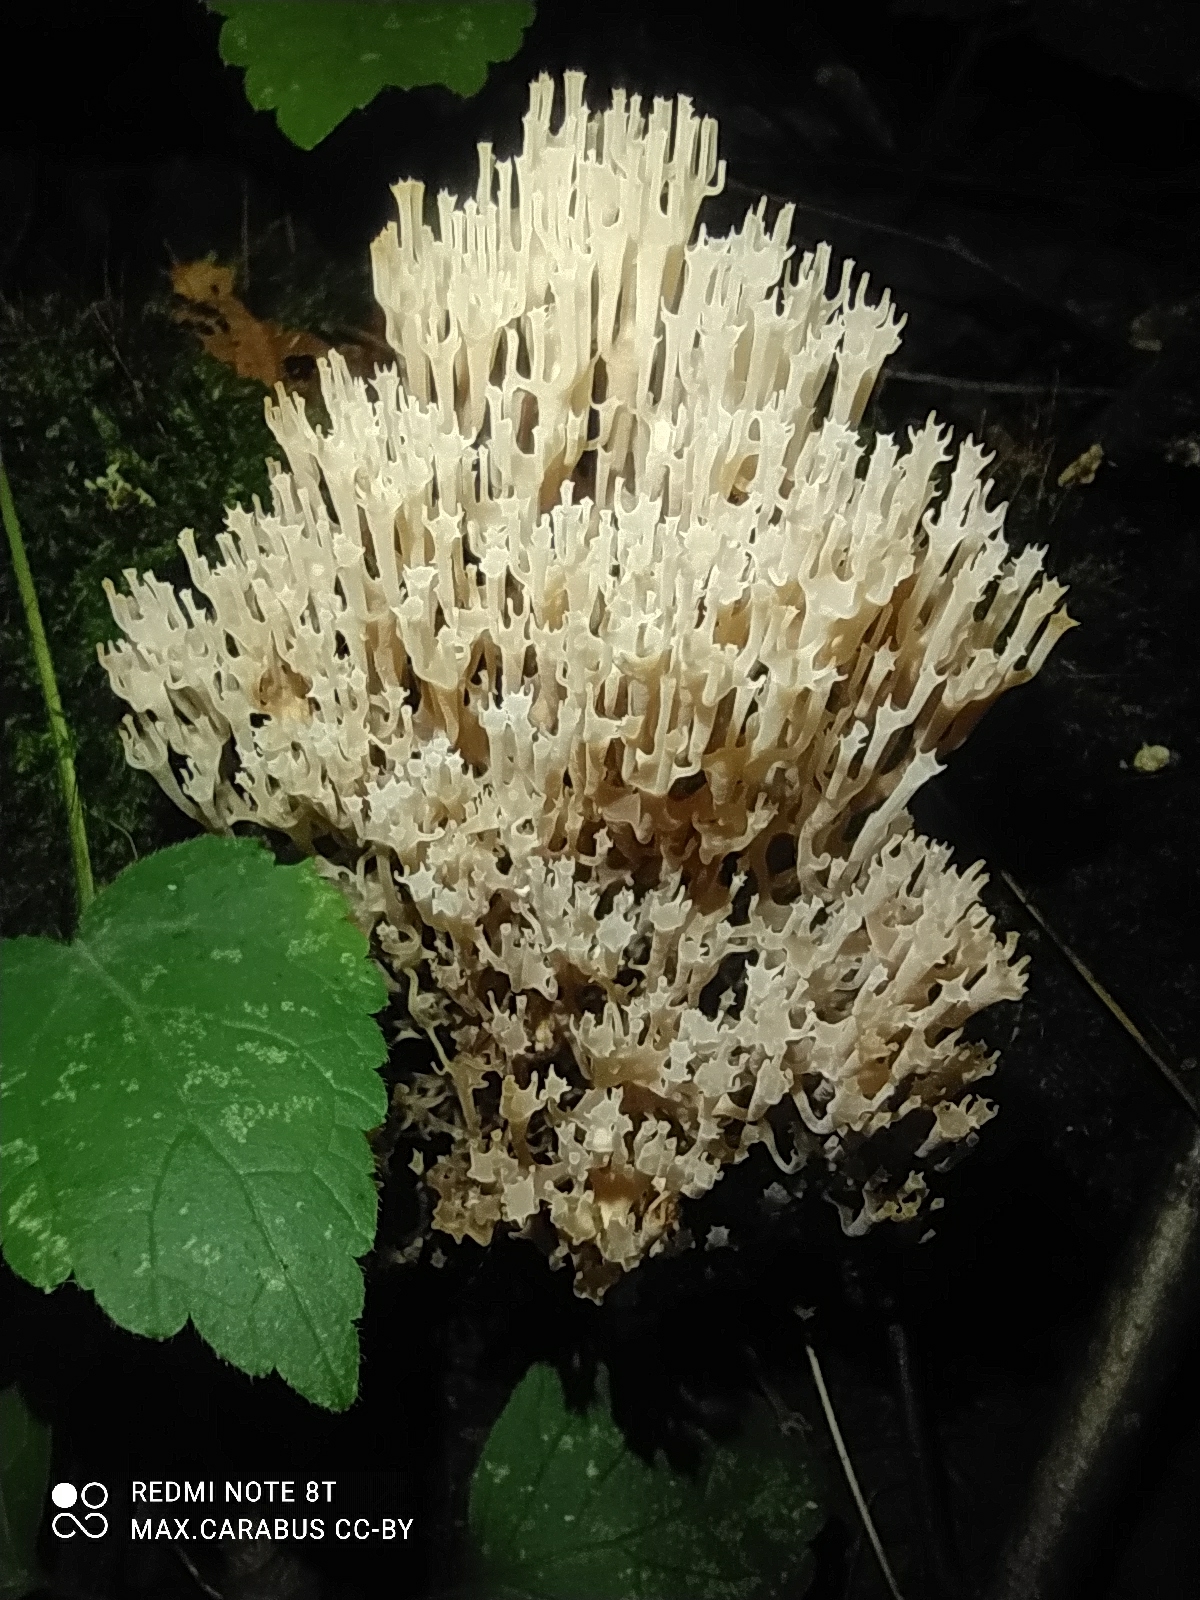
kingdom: Fungi
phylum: Basidiomycota
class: Agaricomycetes
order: Russulales
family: Auriscalpiaceae
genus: Artomyces
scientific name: Artomyces pyxidatus
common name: Crown-tipped coral fungus
